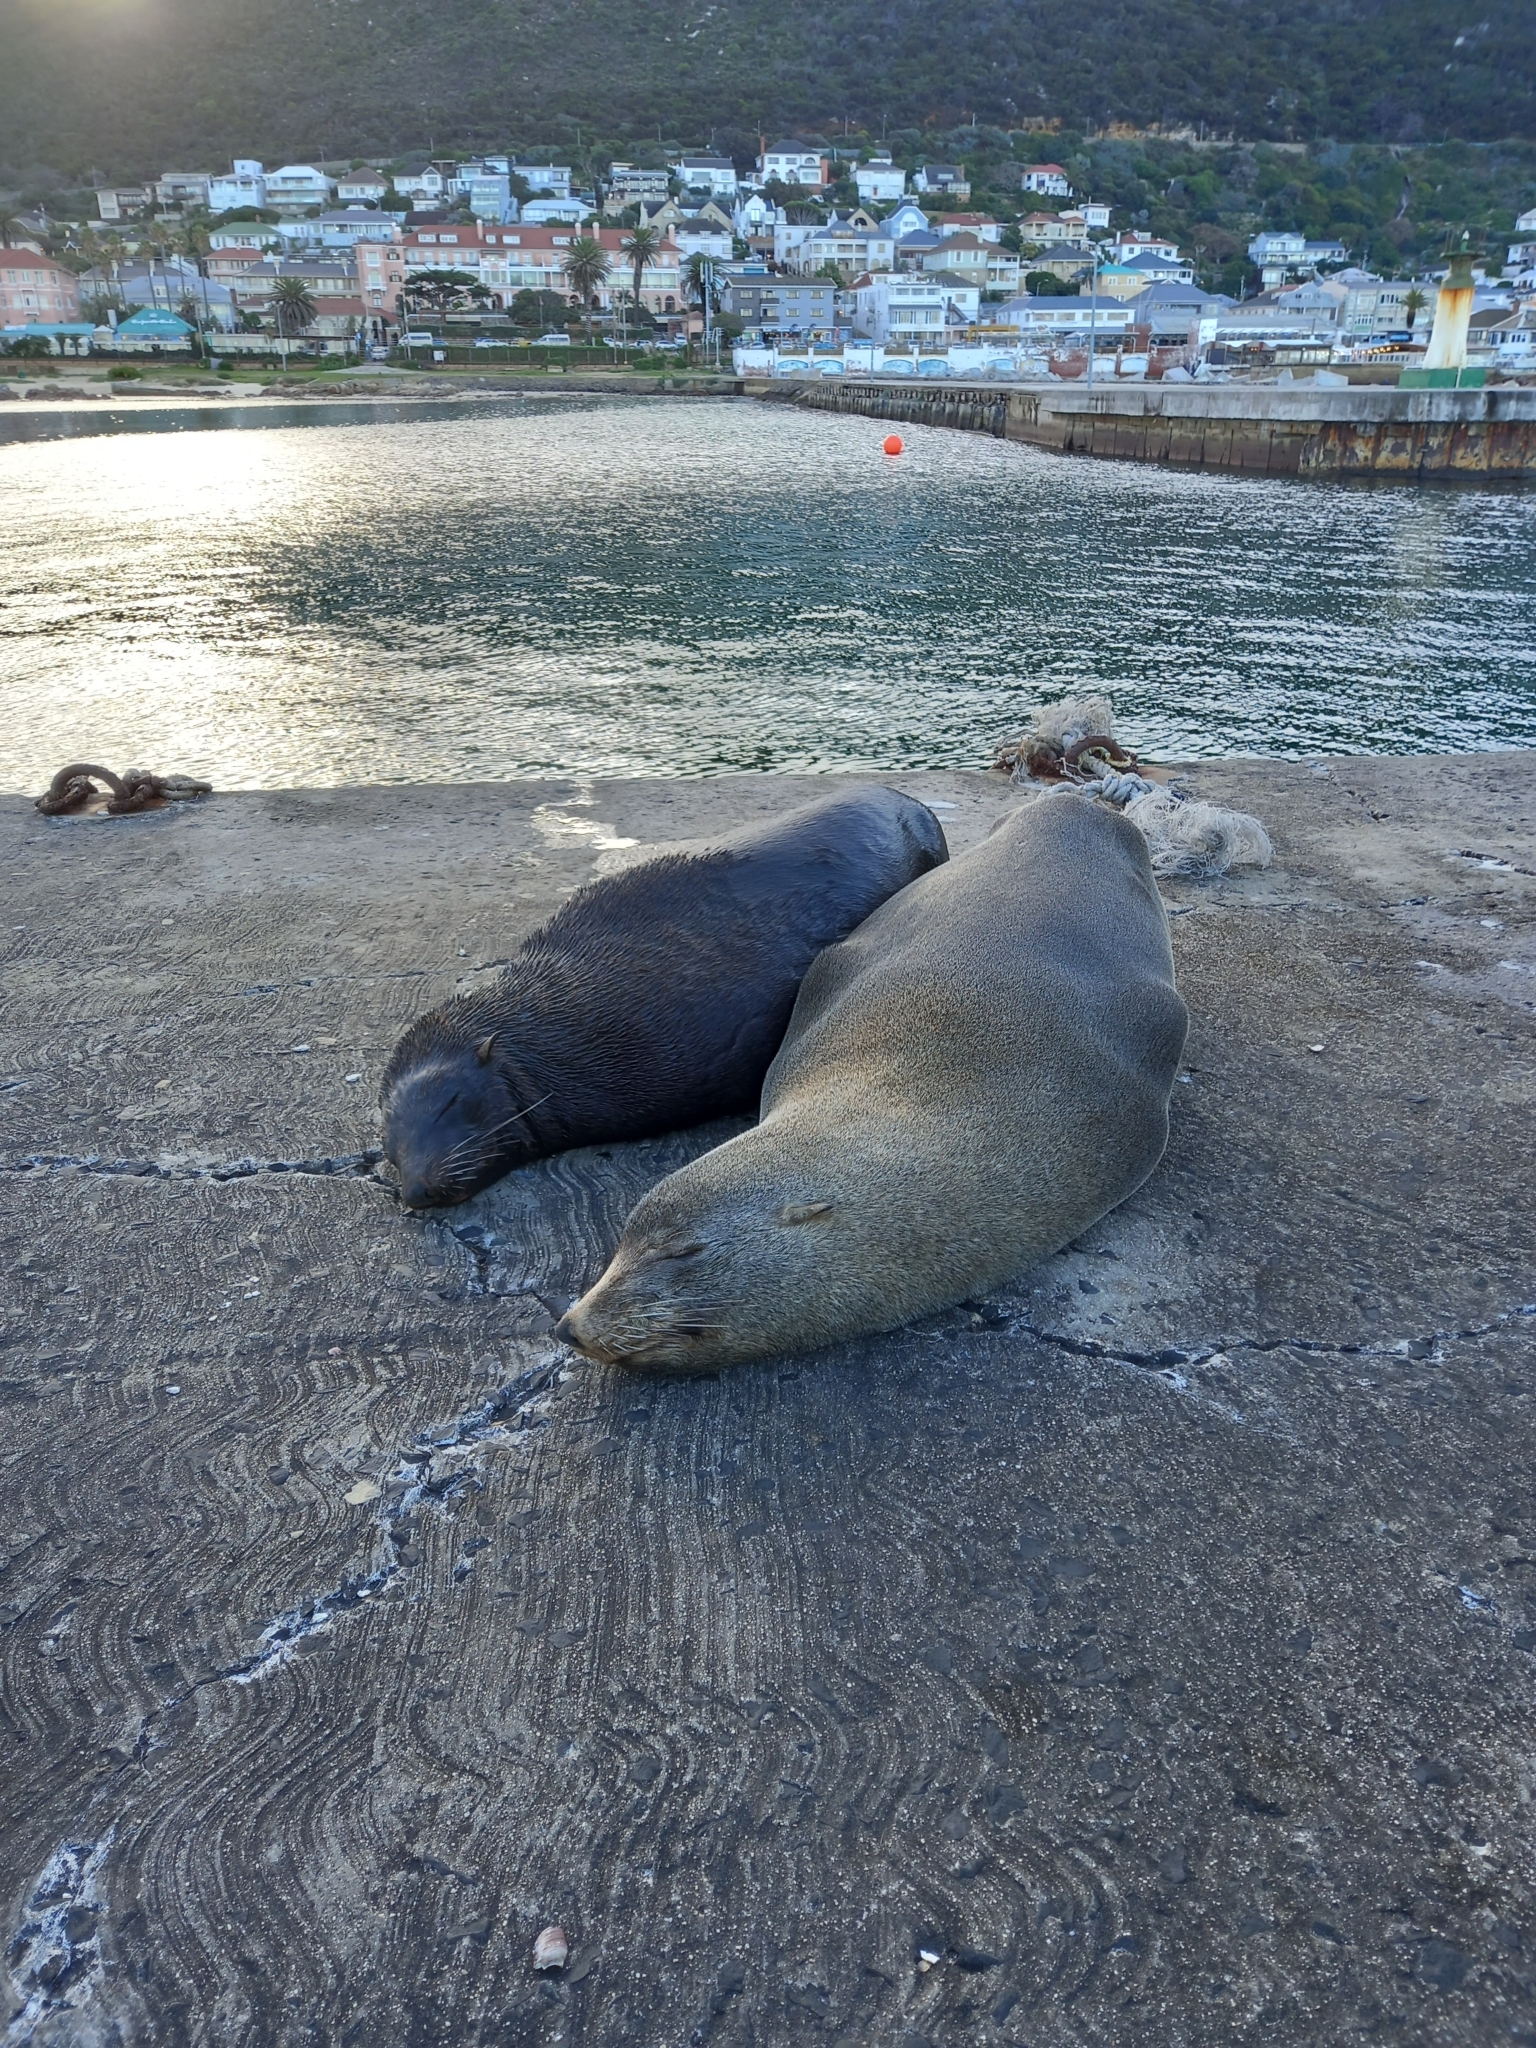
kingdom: Animalia
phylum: Chordata
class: Mammalia
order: Carnivora
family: Otariidae
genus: Arctocephalus
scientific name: Arctocephalus pusillus
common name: Brown fur seal
